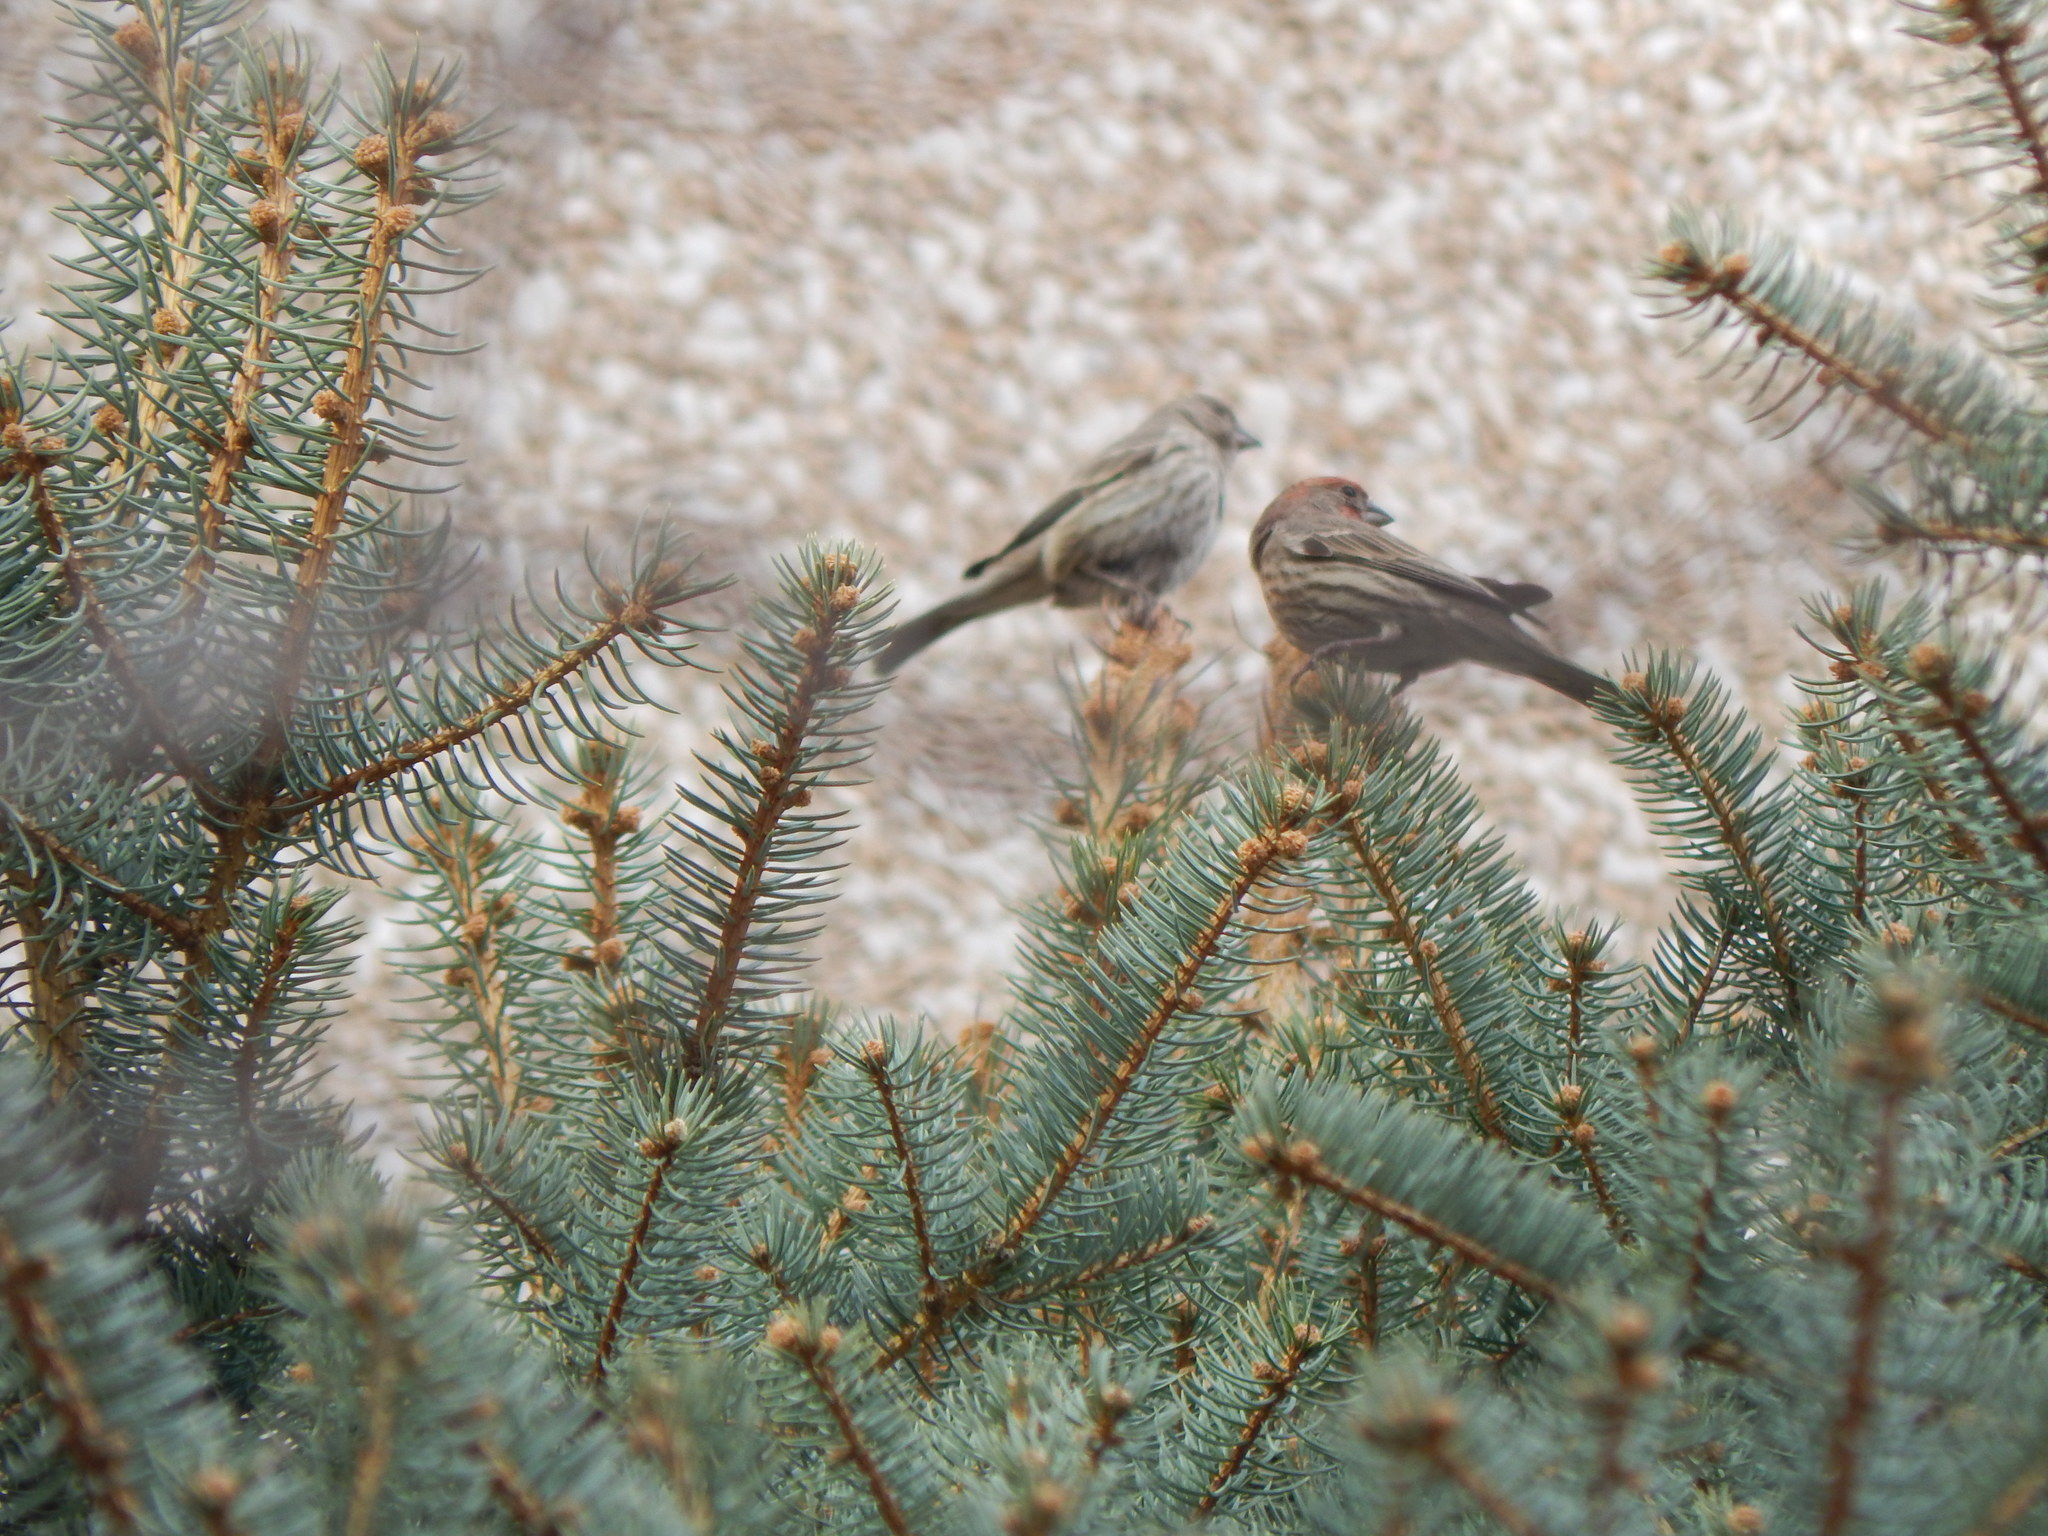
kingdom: Animalia
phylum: Chordata
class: Aves
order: Passeriformes
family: Fringillidae
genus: Haemorhous
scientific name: Haemorhous mexicanus
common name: House finch
